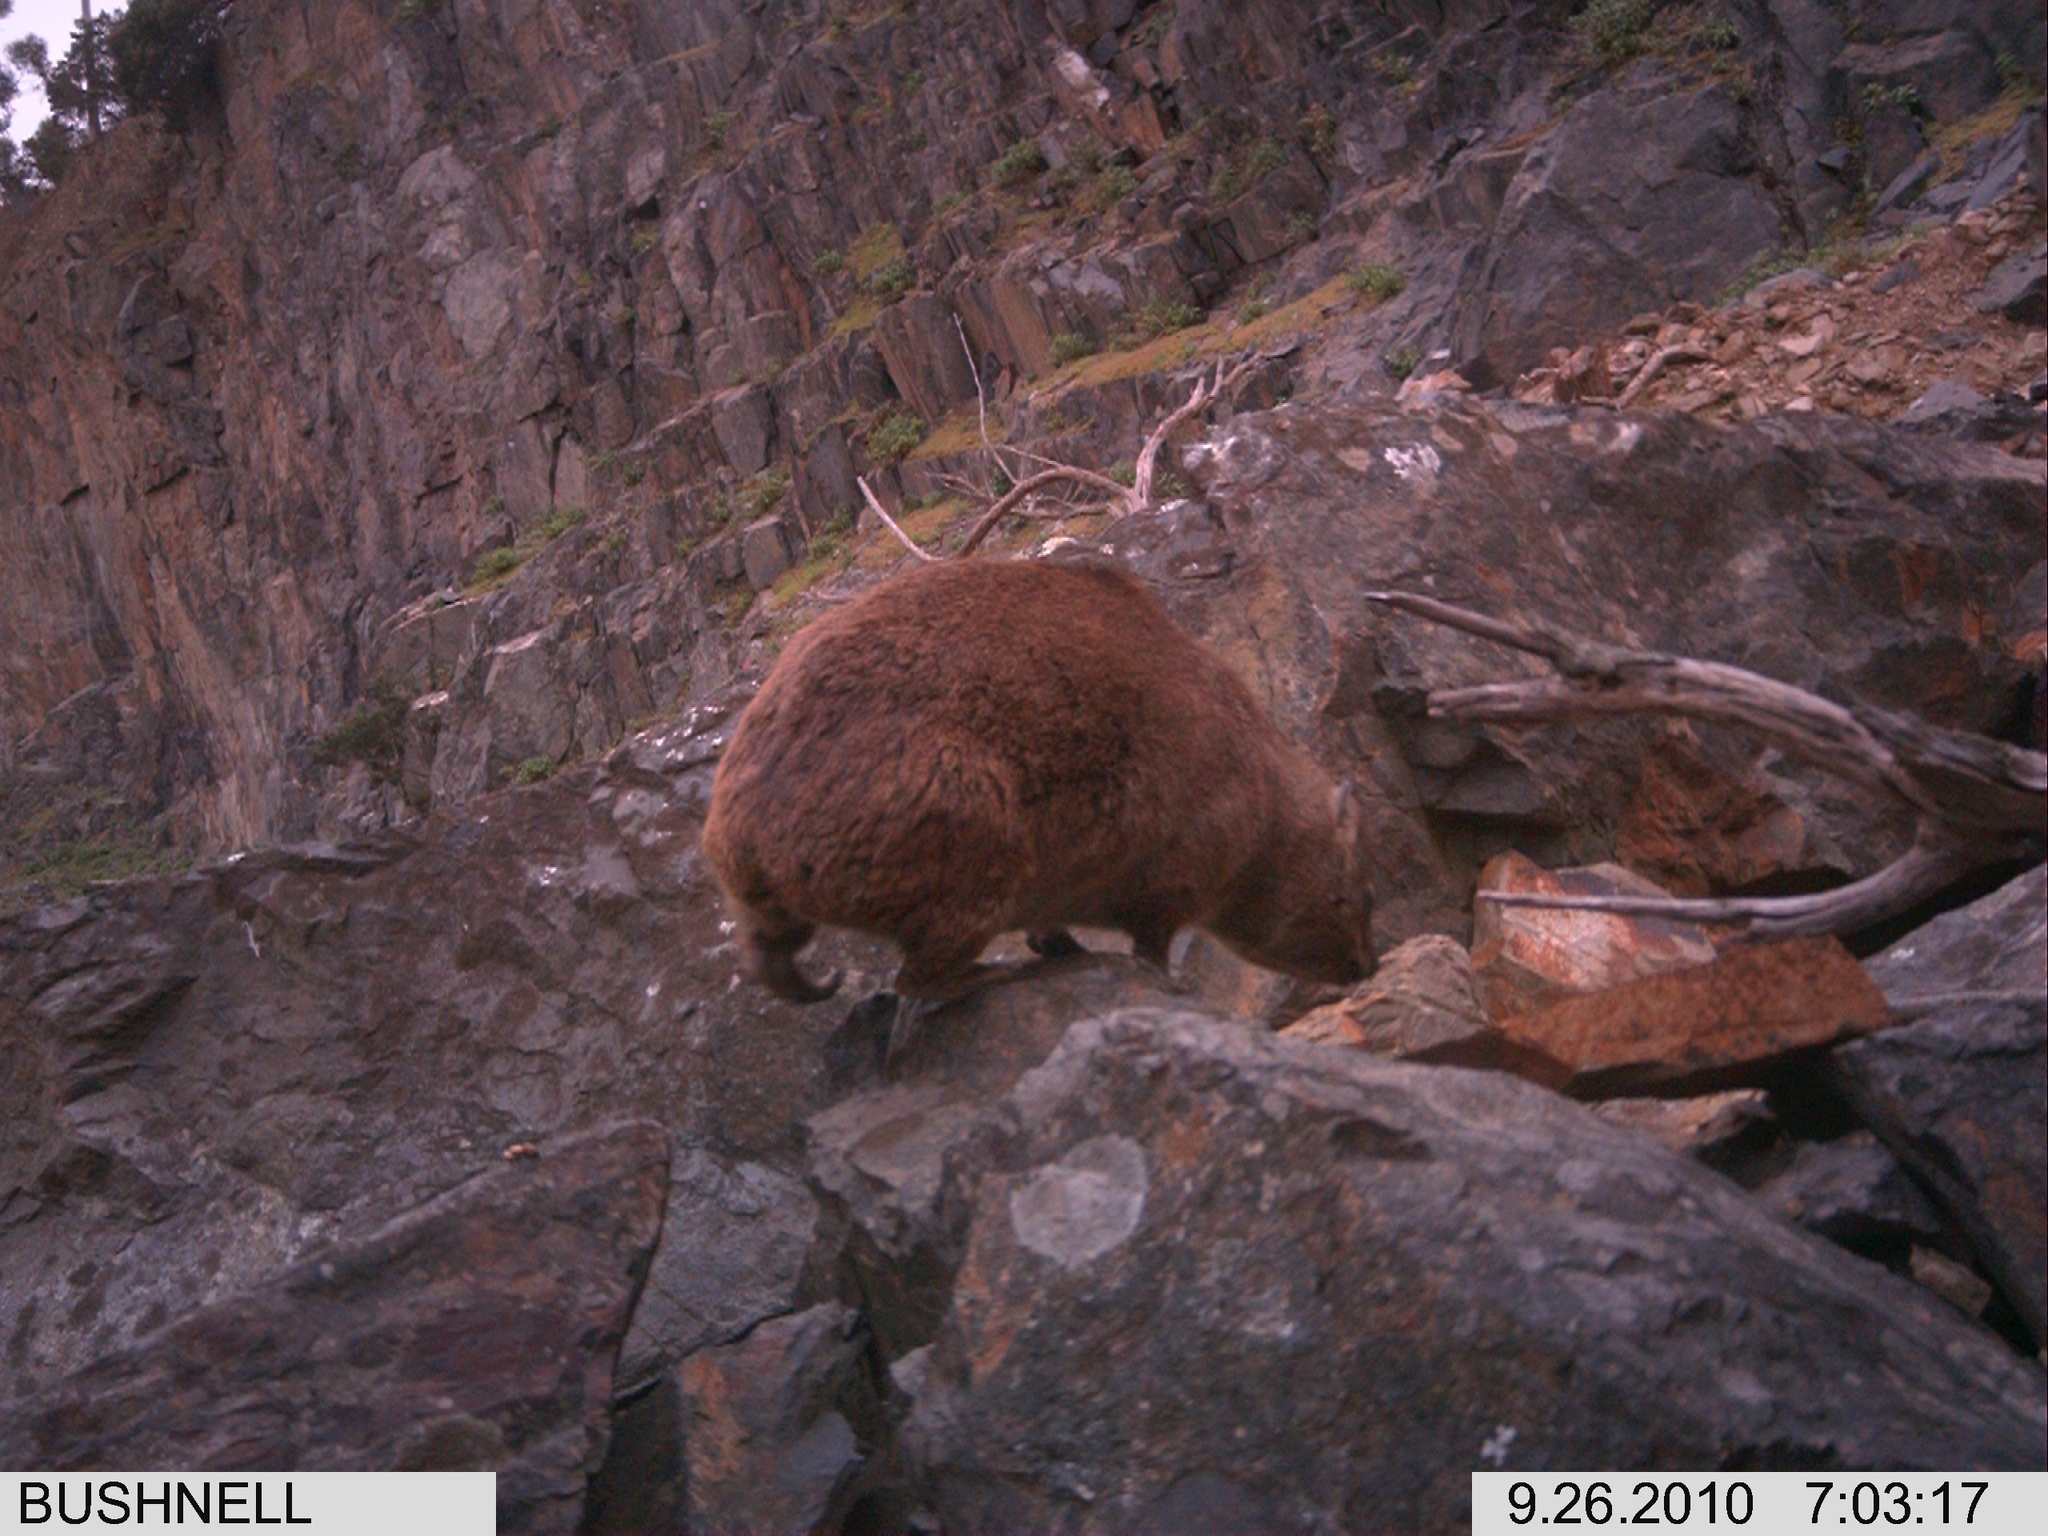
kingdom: Animalia
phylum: Chordata
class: Mammalia
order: Hyracoidea
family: Procaviidae
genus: Procavia
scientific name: Procavia capensis
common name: Rock hyrax
